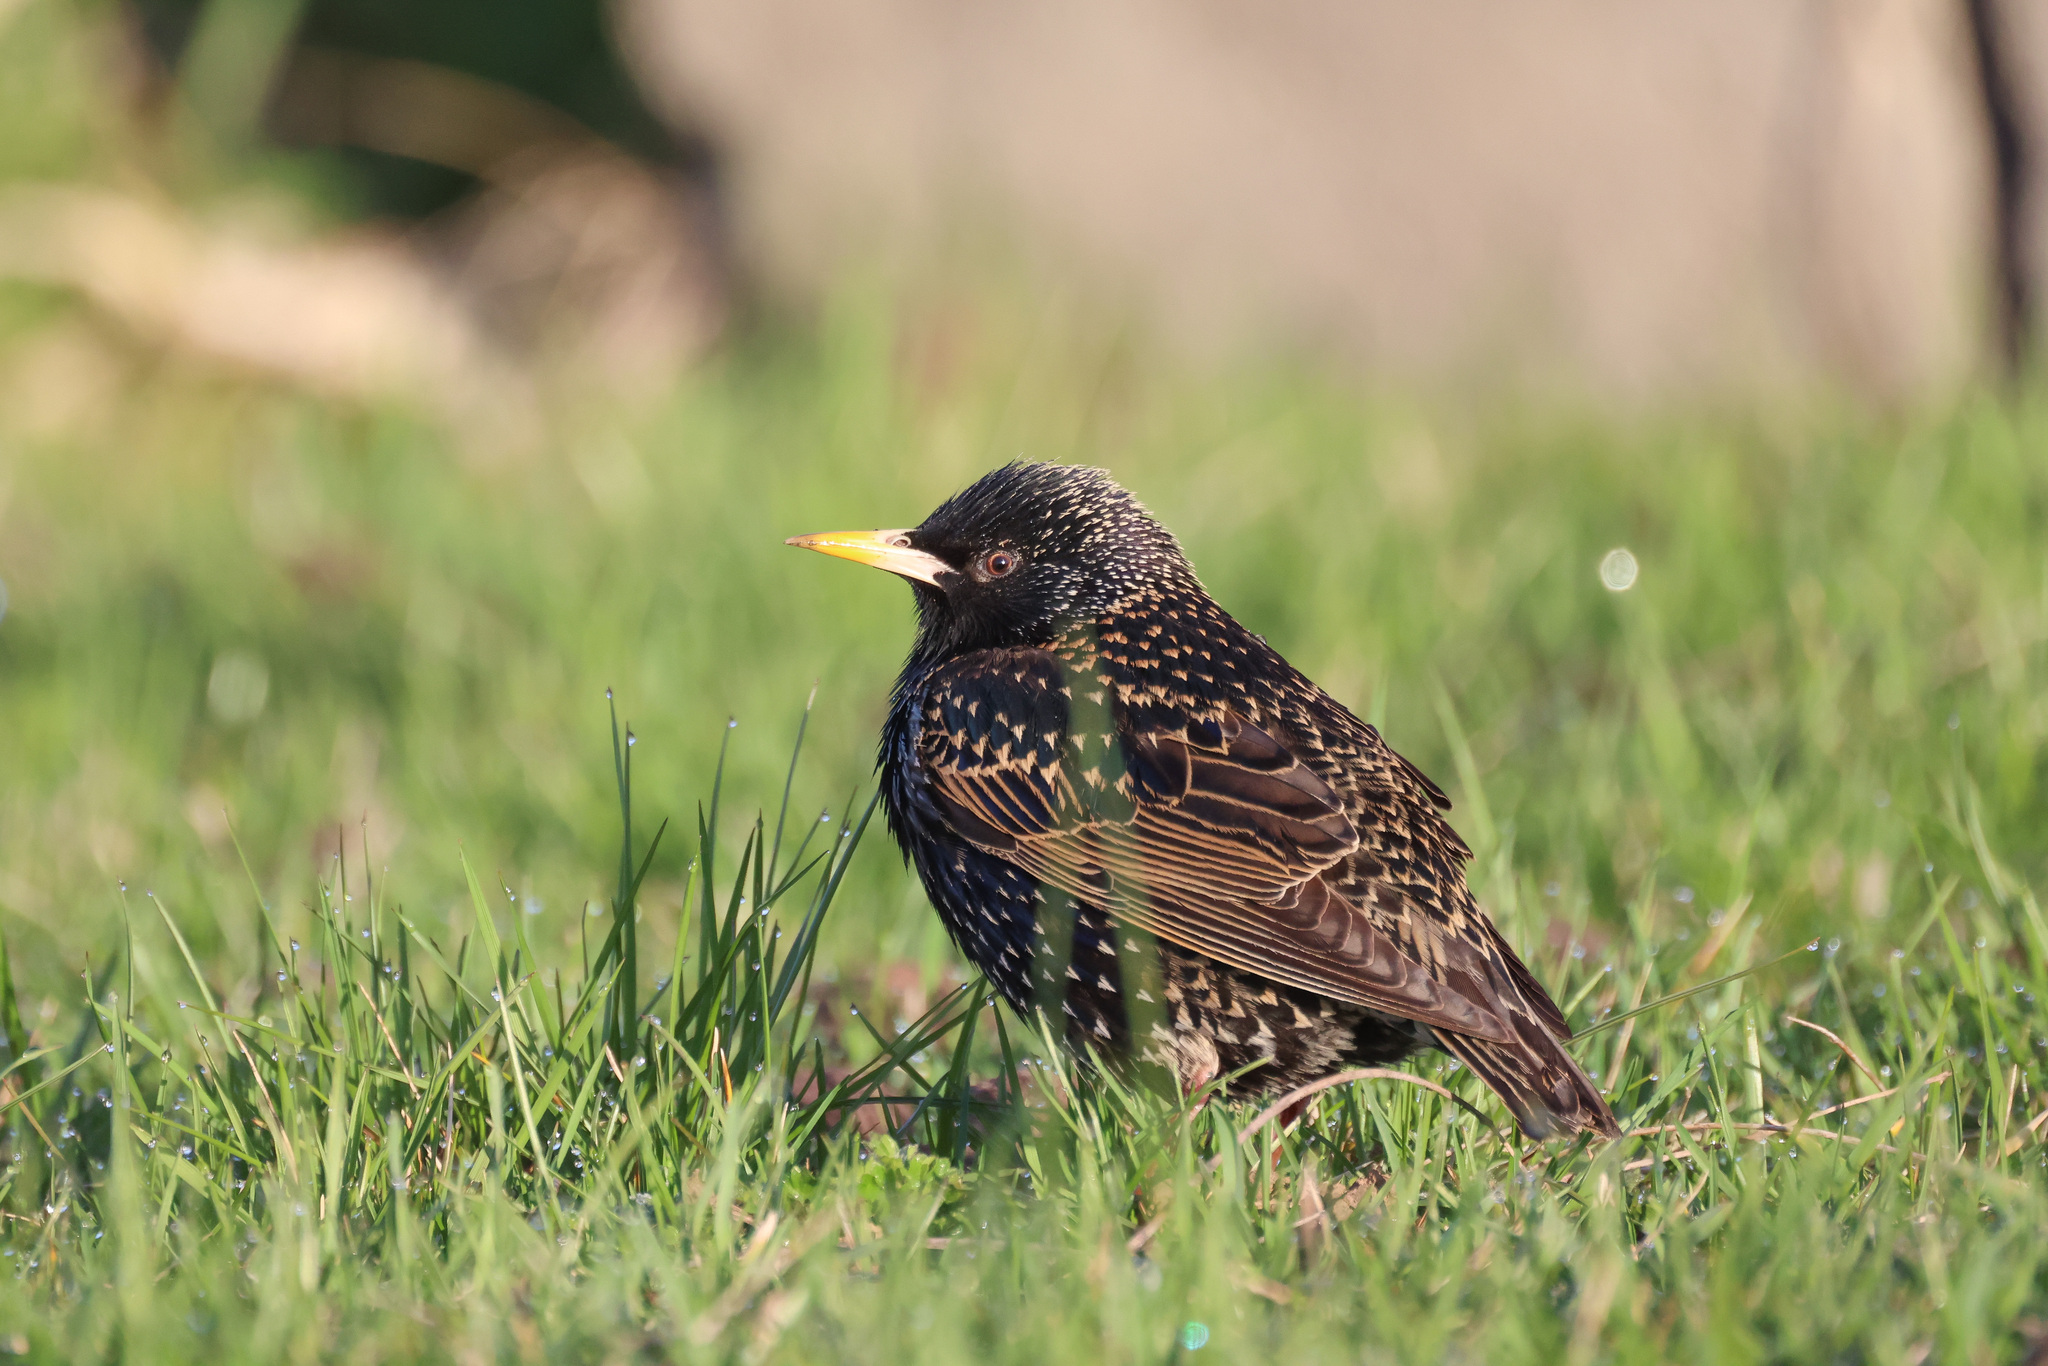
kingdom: Animalia
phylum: Chordata
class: Aves
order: Passeriformes
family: Sturnidae
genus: Sturnus
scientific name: Sturnus vulgaris
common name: Common starling
